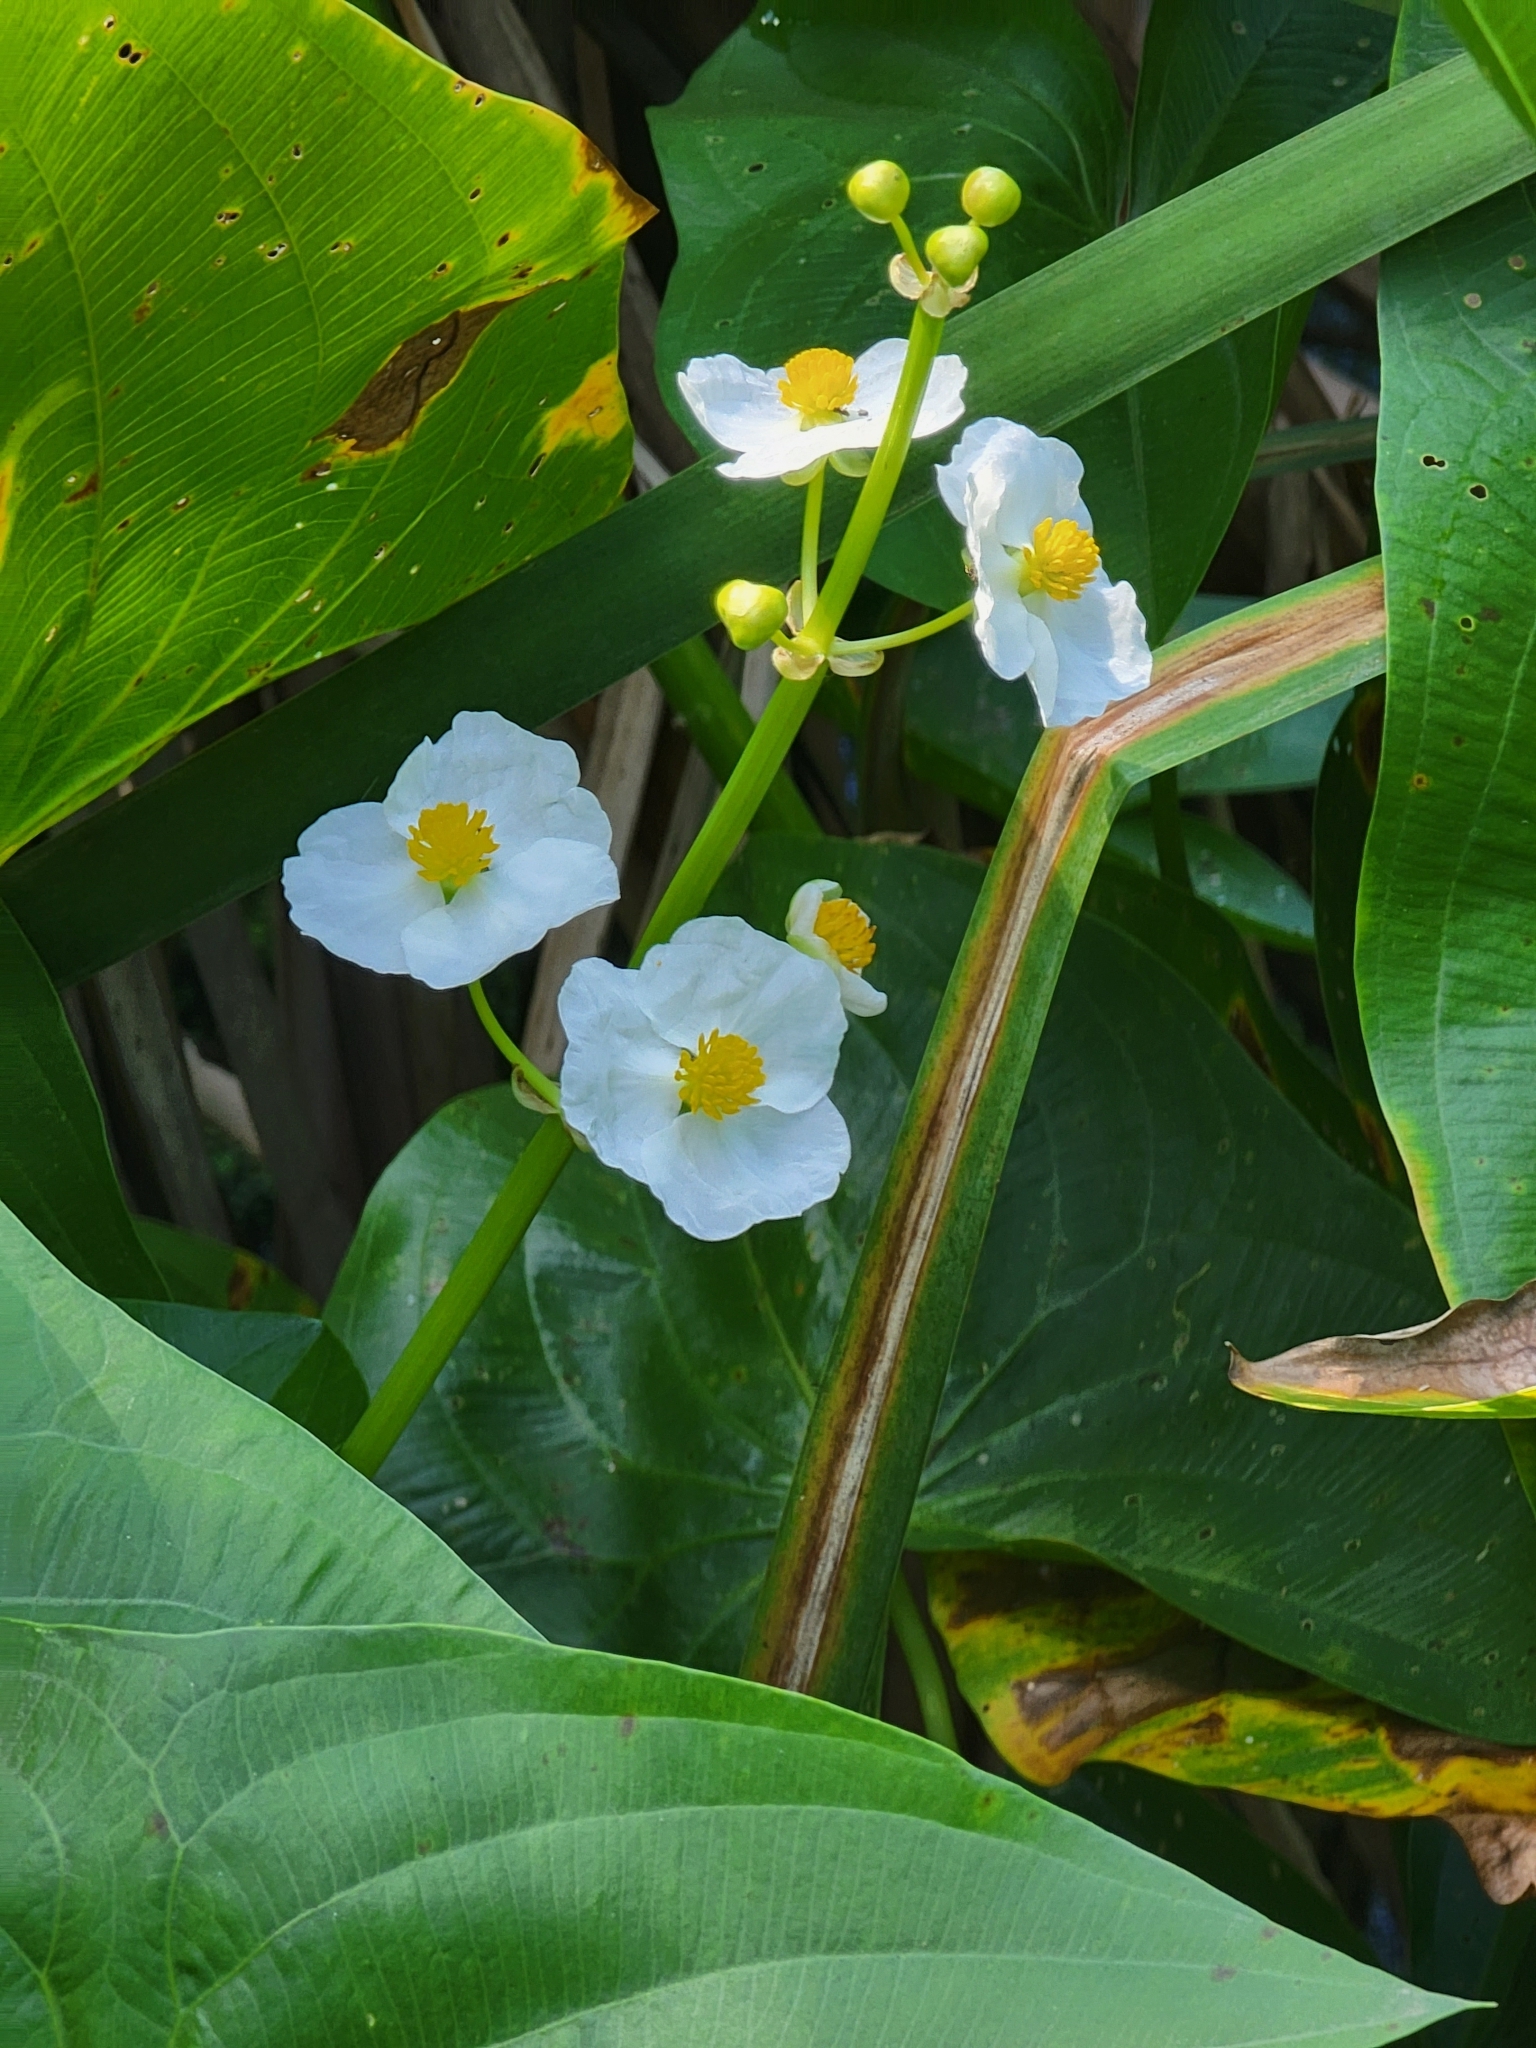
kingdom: Plantae
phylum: Tracheophyta
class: Liliopsida
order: Alismatales
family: Alismataceae
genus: Sagittaria
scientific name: Sagittaria latifolia
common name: Duck-potato
